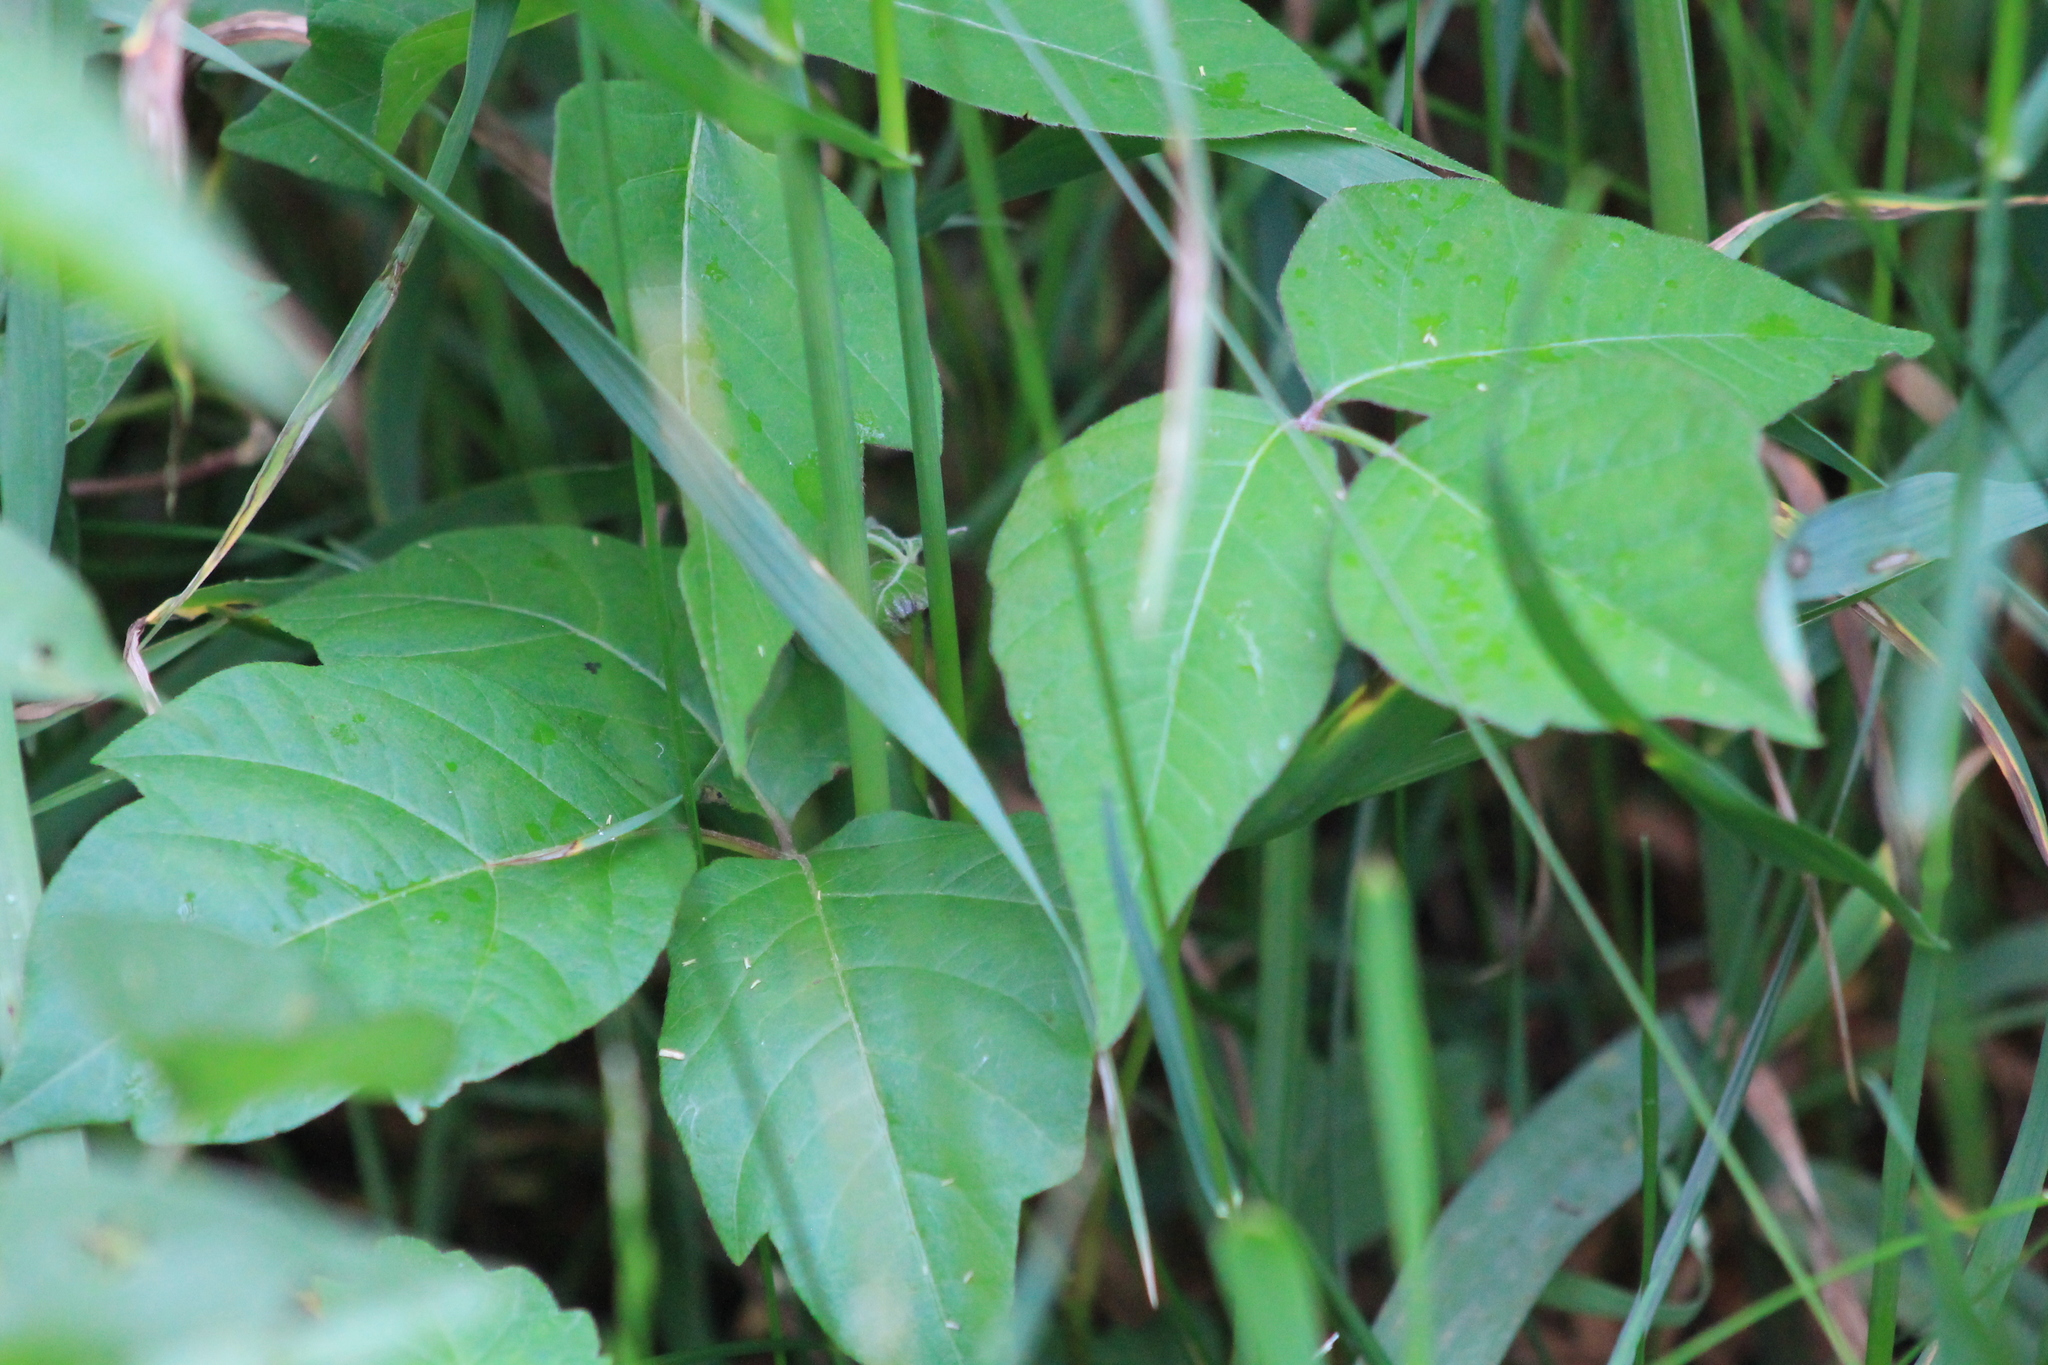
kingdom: Plantae
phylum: Tracheophyta
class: Magnoliopsida
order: Sapindales
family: Anacardiaceae
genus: Toxicodendron
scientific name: Toxicodendron radicans
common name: Poison ivy
